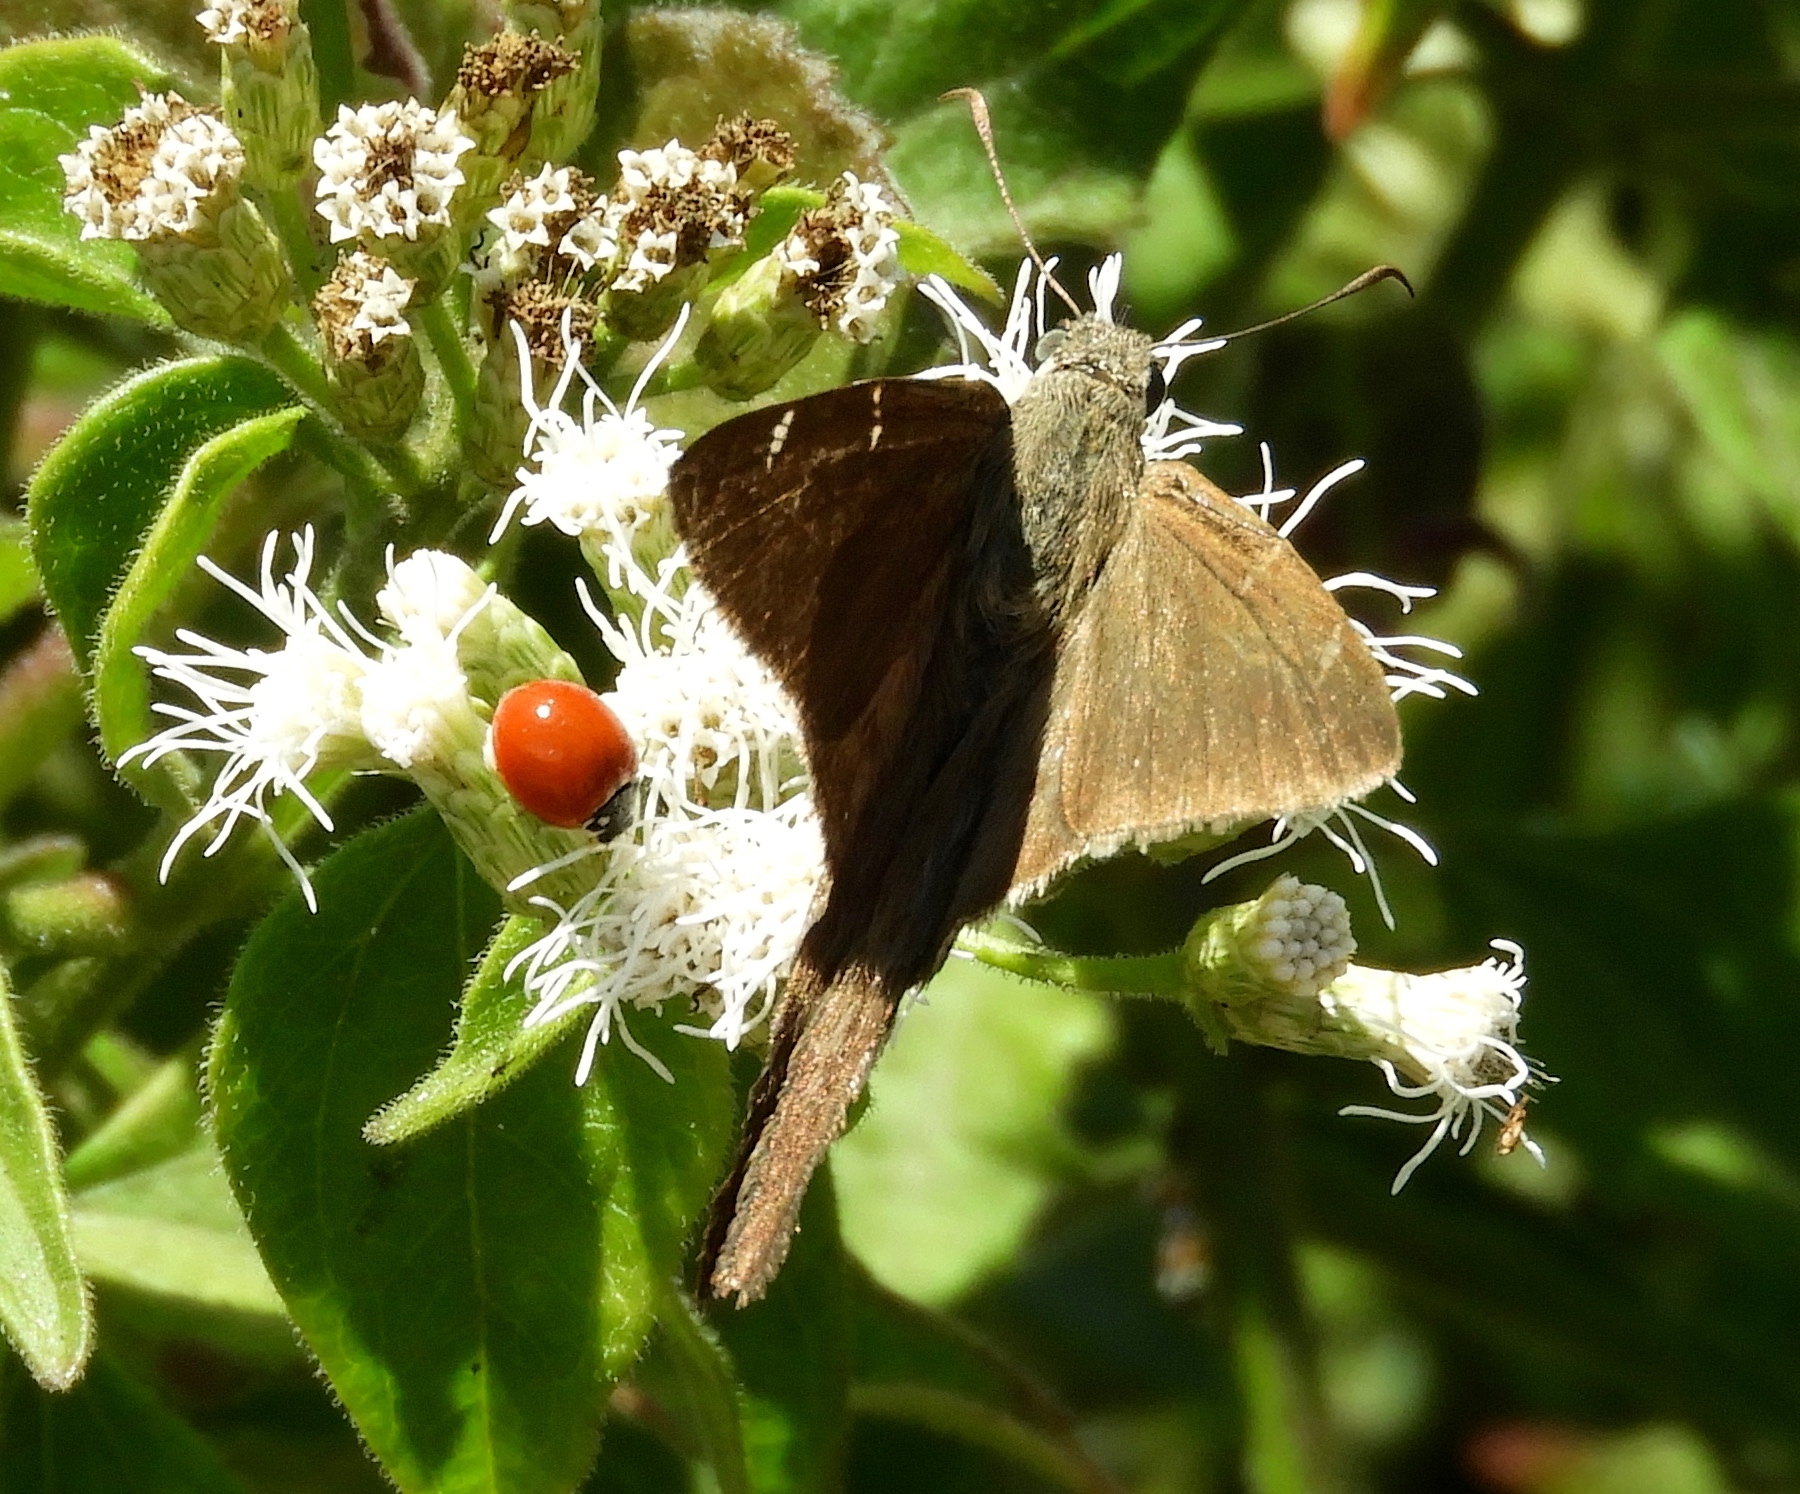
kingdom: Animalia
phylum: Arthropoda
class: Insecta
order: Lepidoptera
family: Hesperiidae
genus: Urbanus
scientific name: Urbanus procne
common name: Brown longtail
